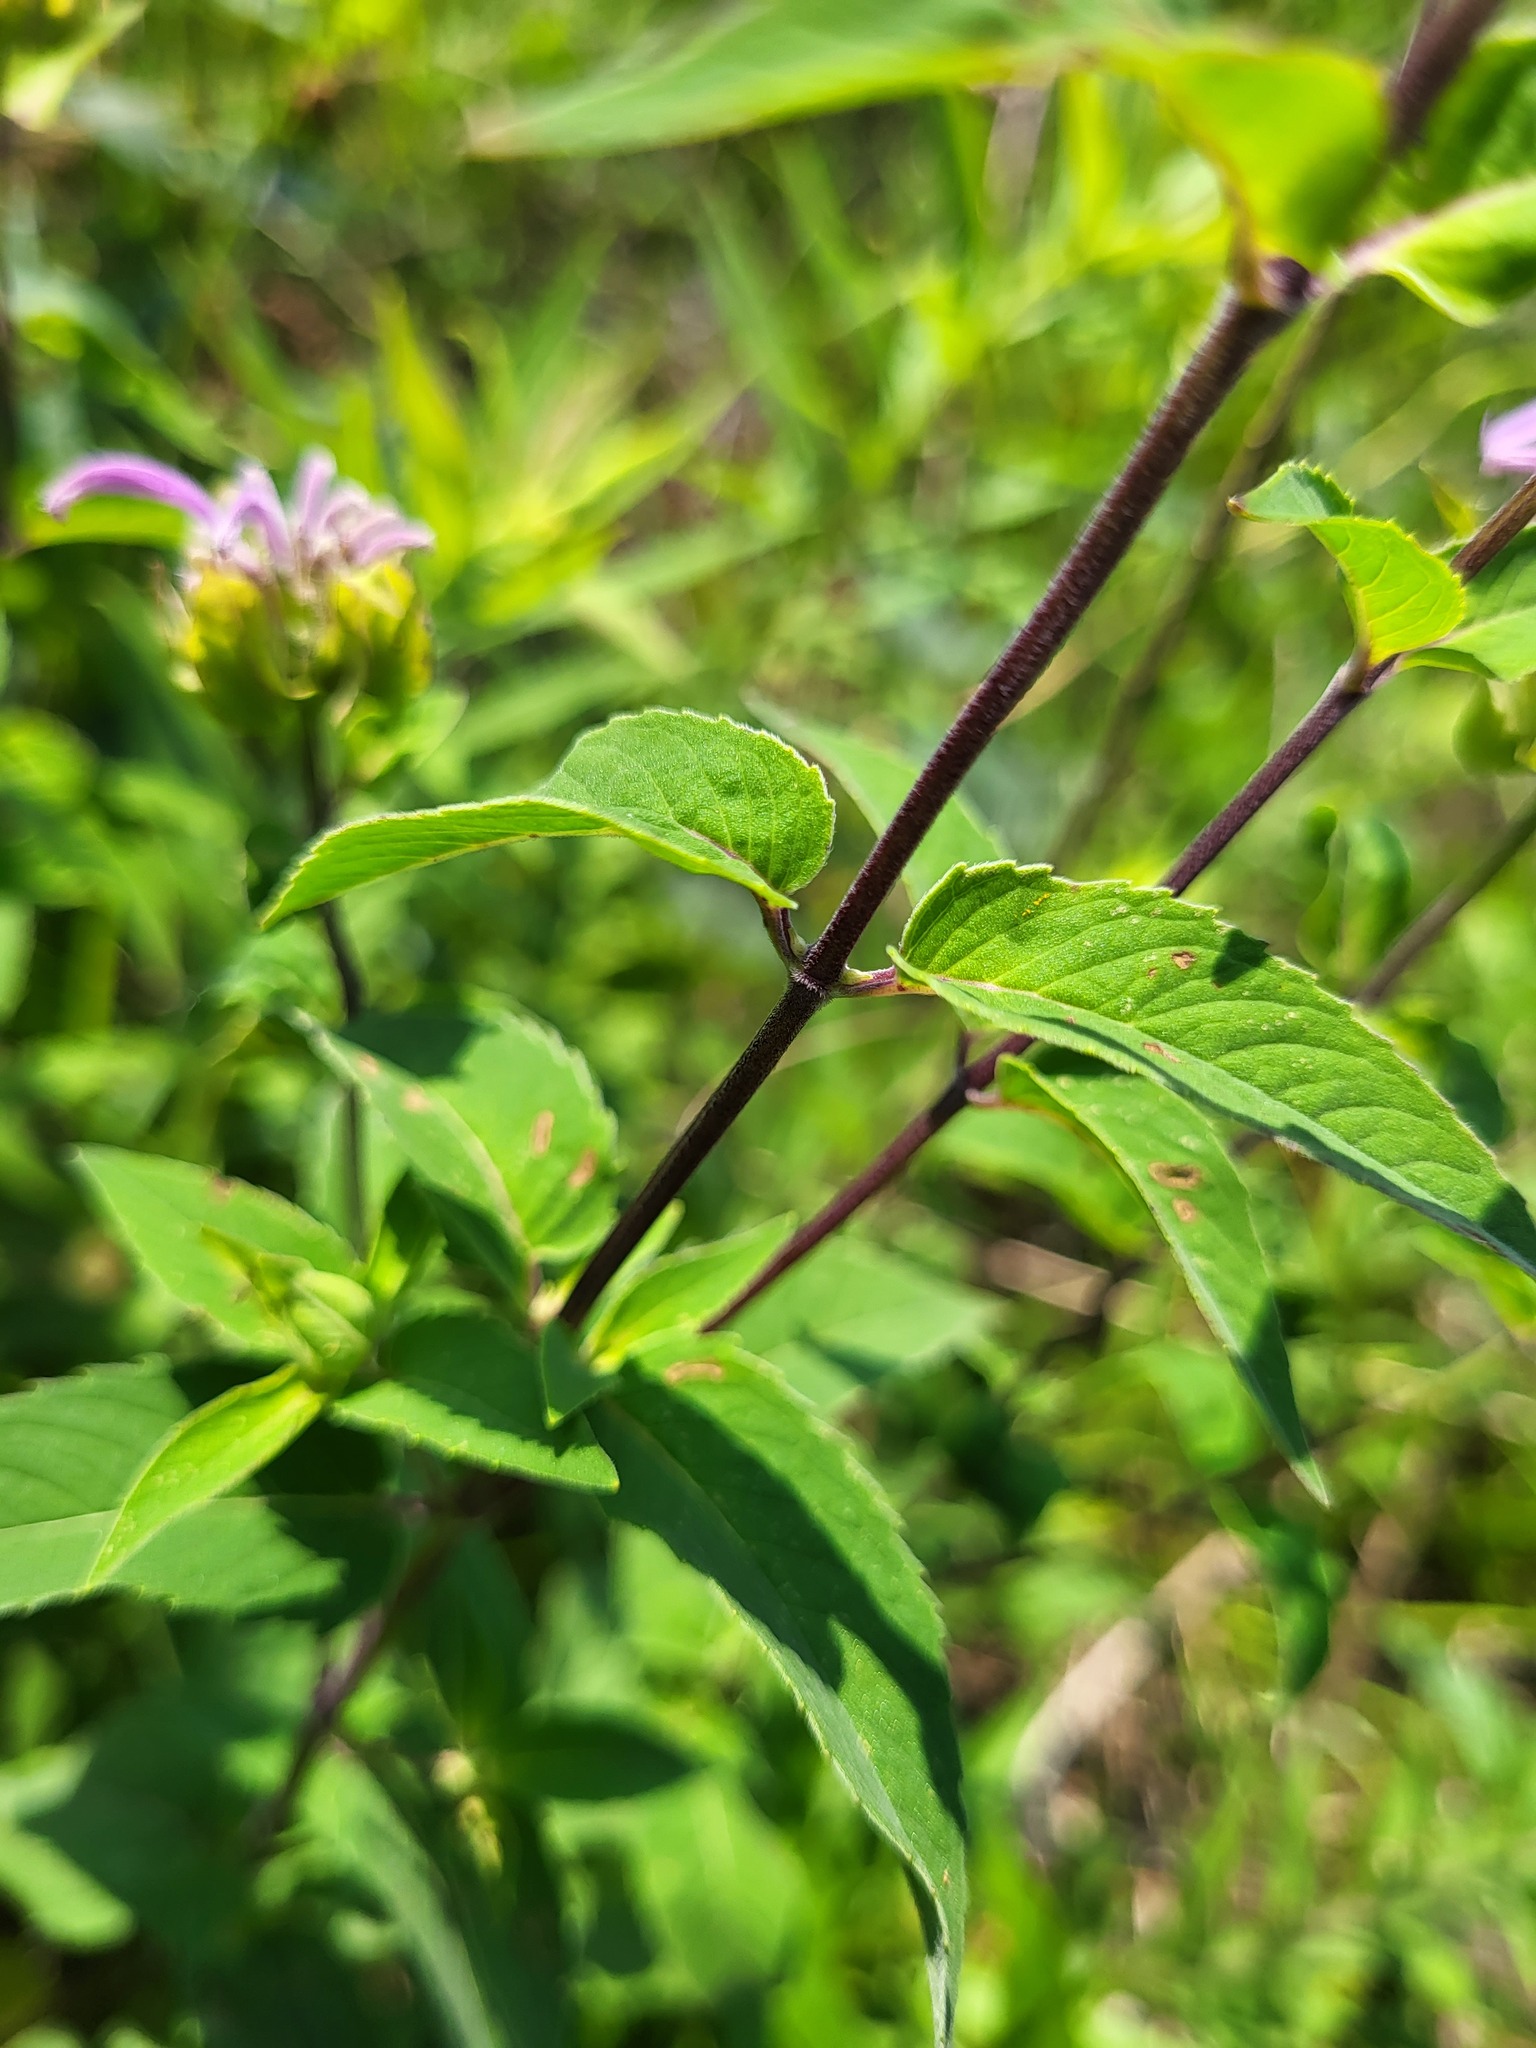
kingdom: Plantae
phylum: Tracheophyta
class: Magnoliopsida
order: Lamiales
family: Lamiaceae
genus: Monarda
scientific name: Monarda fistulosa
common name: Purple beebalm
